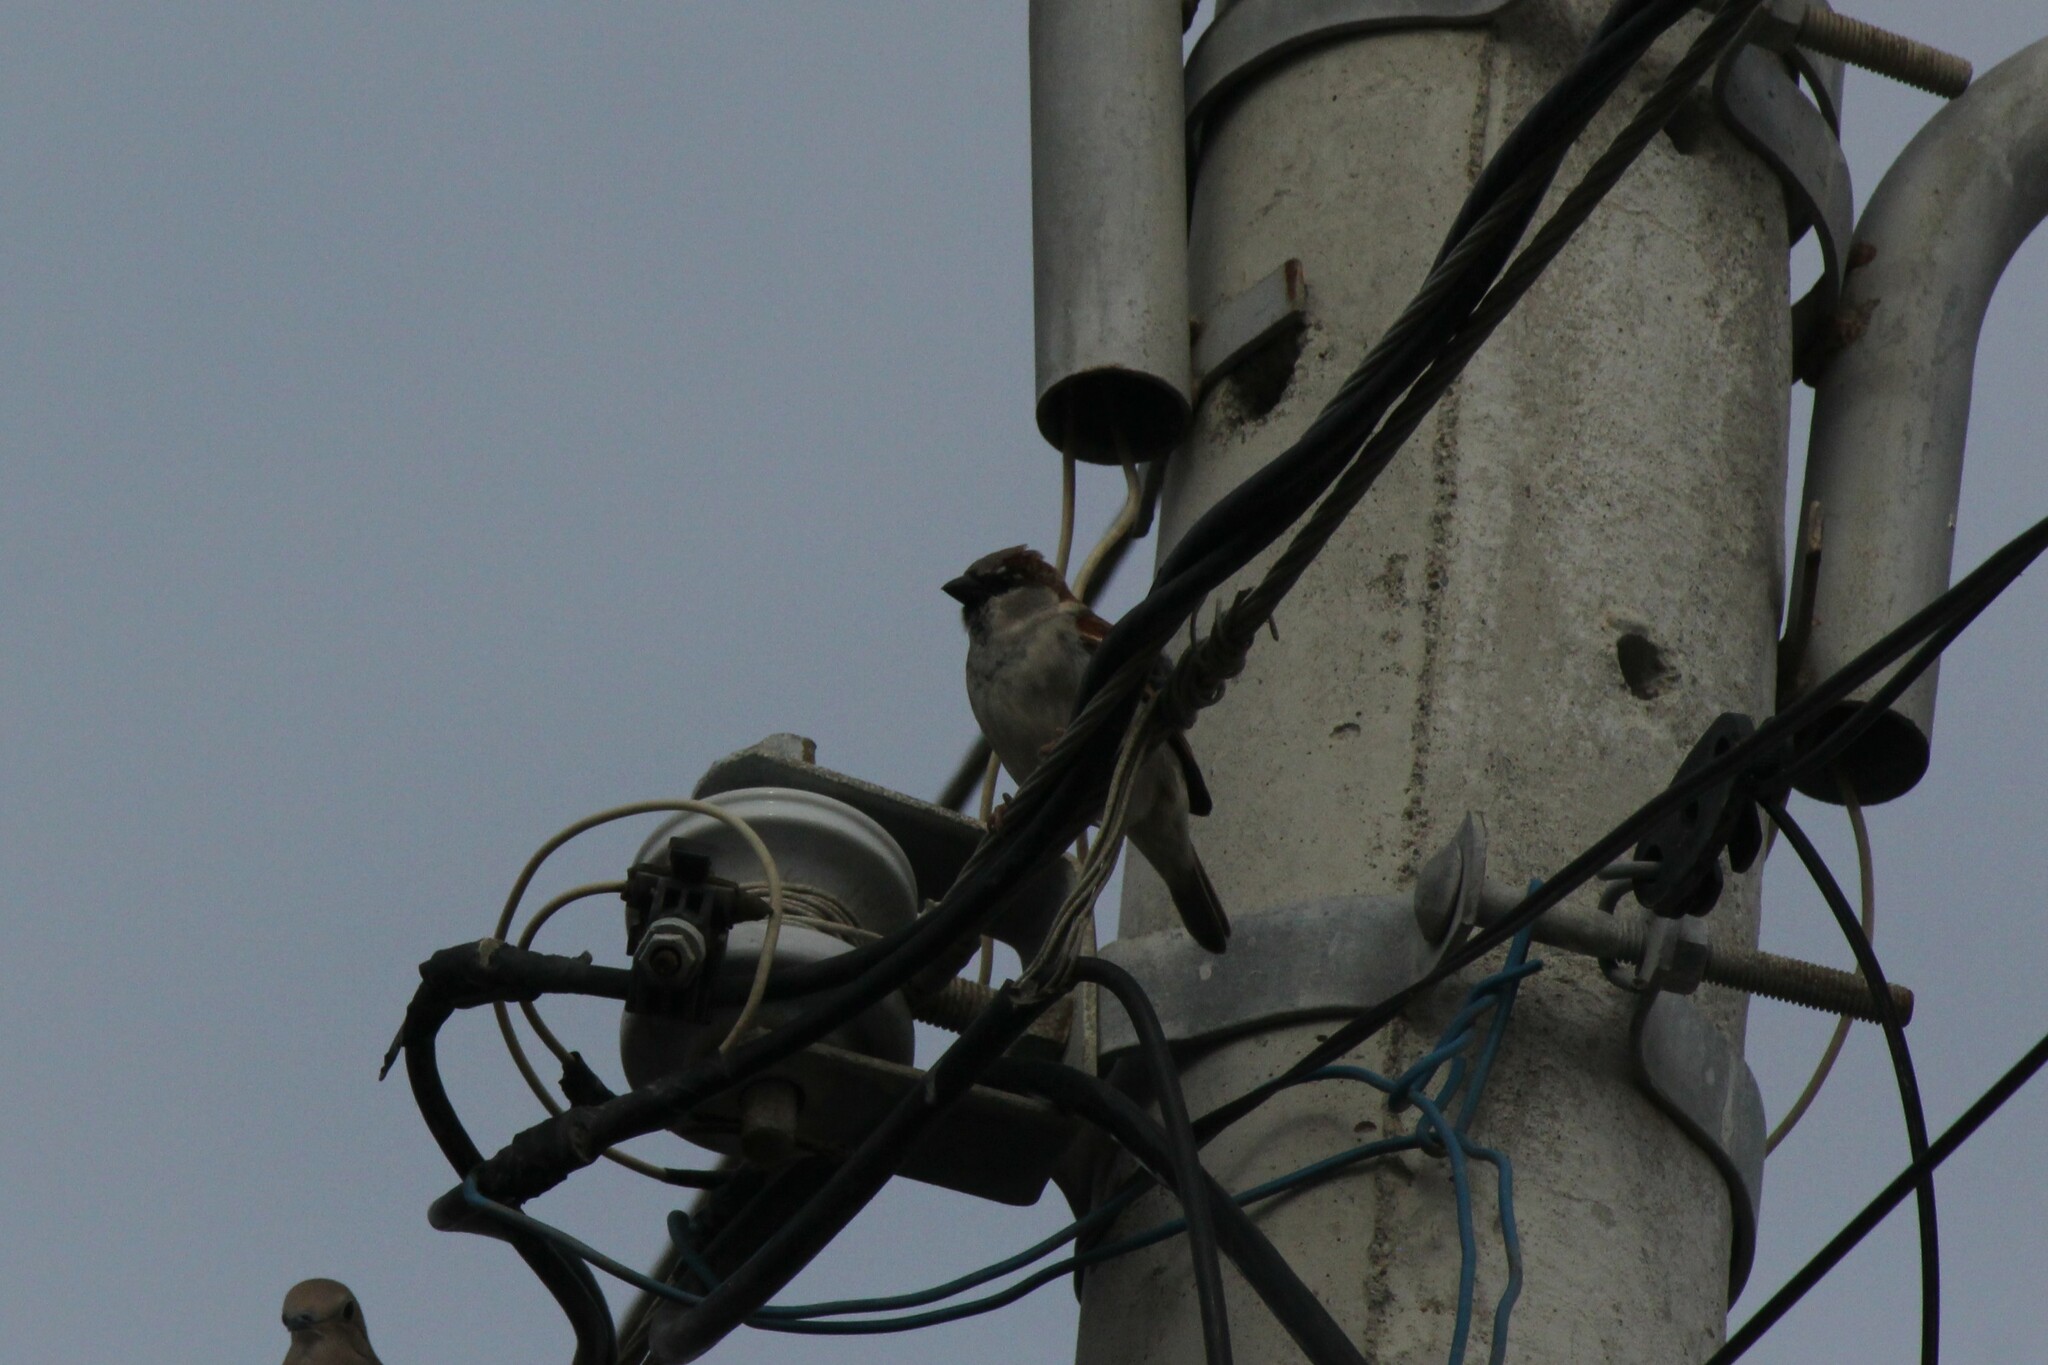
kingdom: Animalia
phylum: Chordata
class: Aves
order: Passeriformes
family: Passeridae
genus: Passer
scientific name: Passer domesticus
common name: House sparrow
